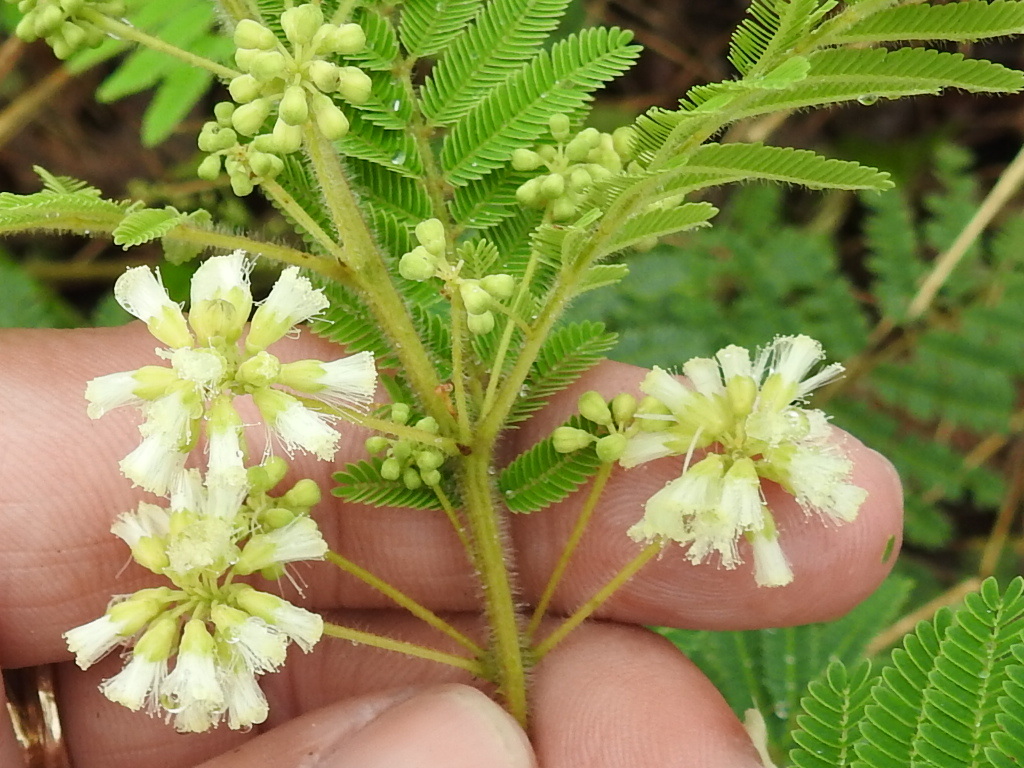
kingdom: Plantae
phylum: Tracheophyta
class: Magnoliopsida
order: Fabales
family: Fabaceae
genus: Acaciella
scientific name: Acaciella angustissima
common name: Prairie acacia
